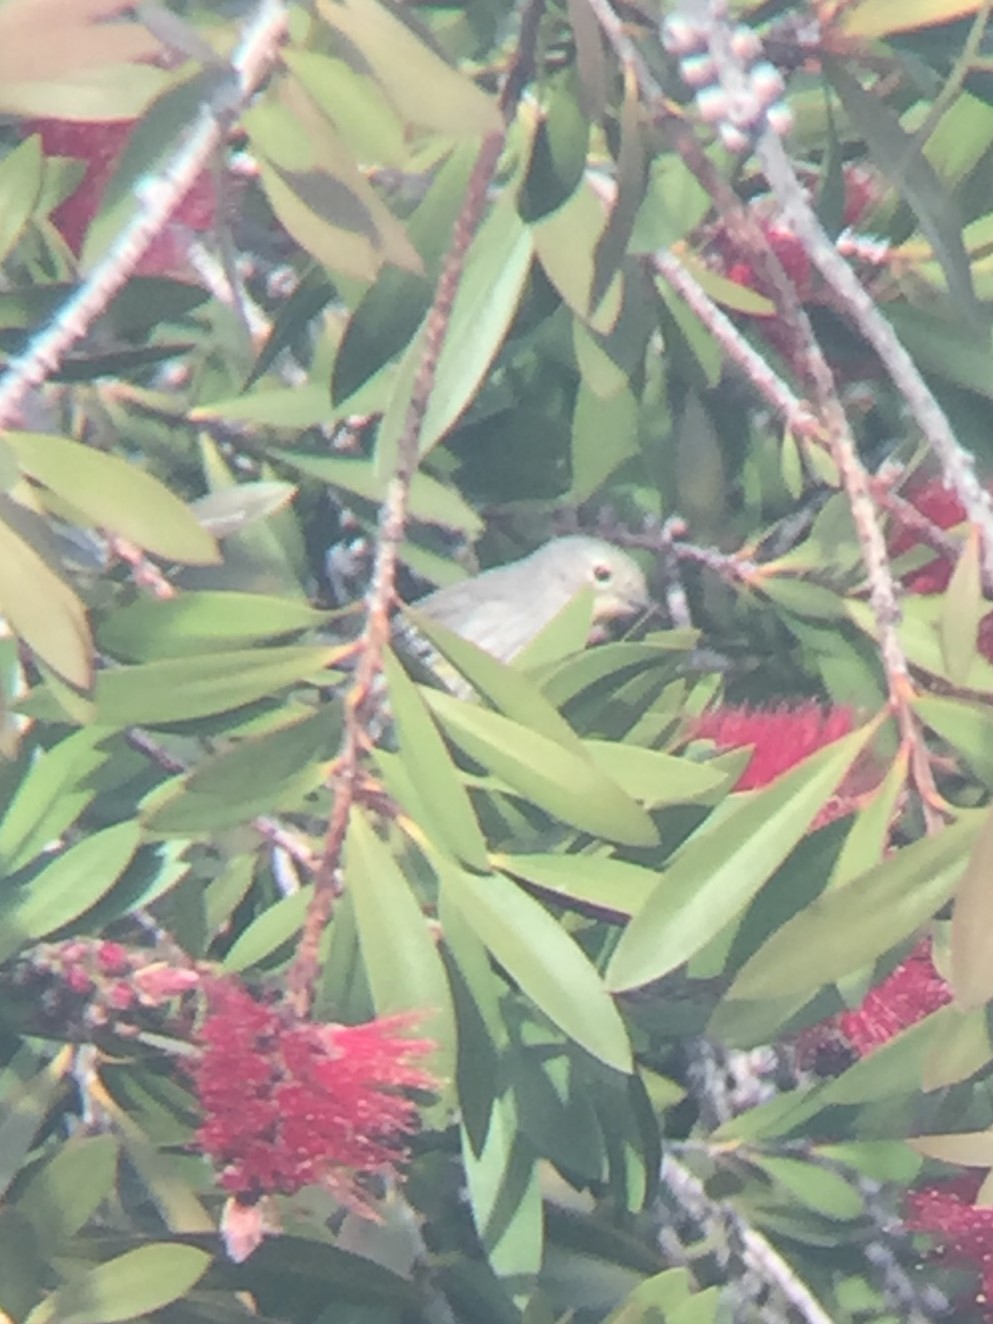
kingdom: Animalia
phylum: Chordata
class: Aves
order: Passeriformes
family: Parulidae
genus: Setophaga
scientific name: Setophaga coronata
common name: Myrtle warbler
